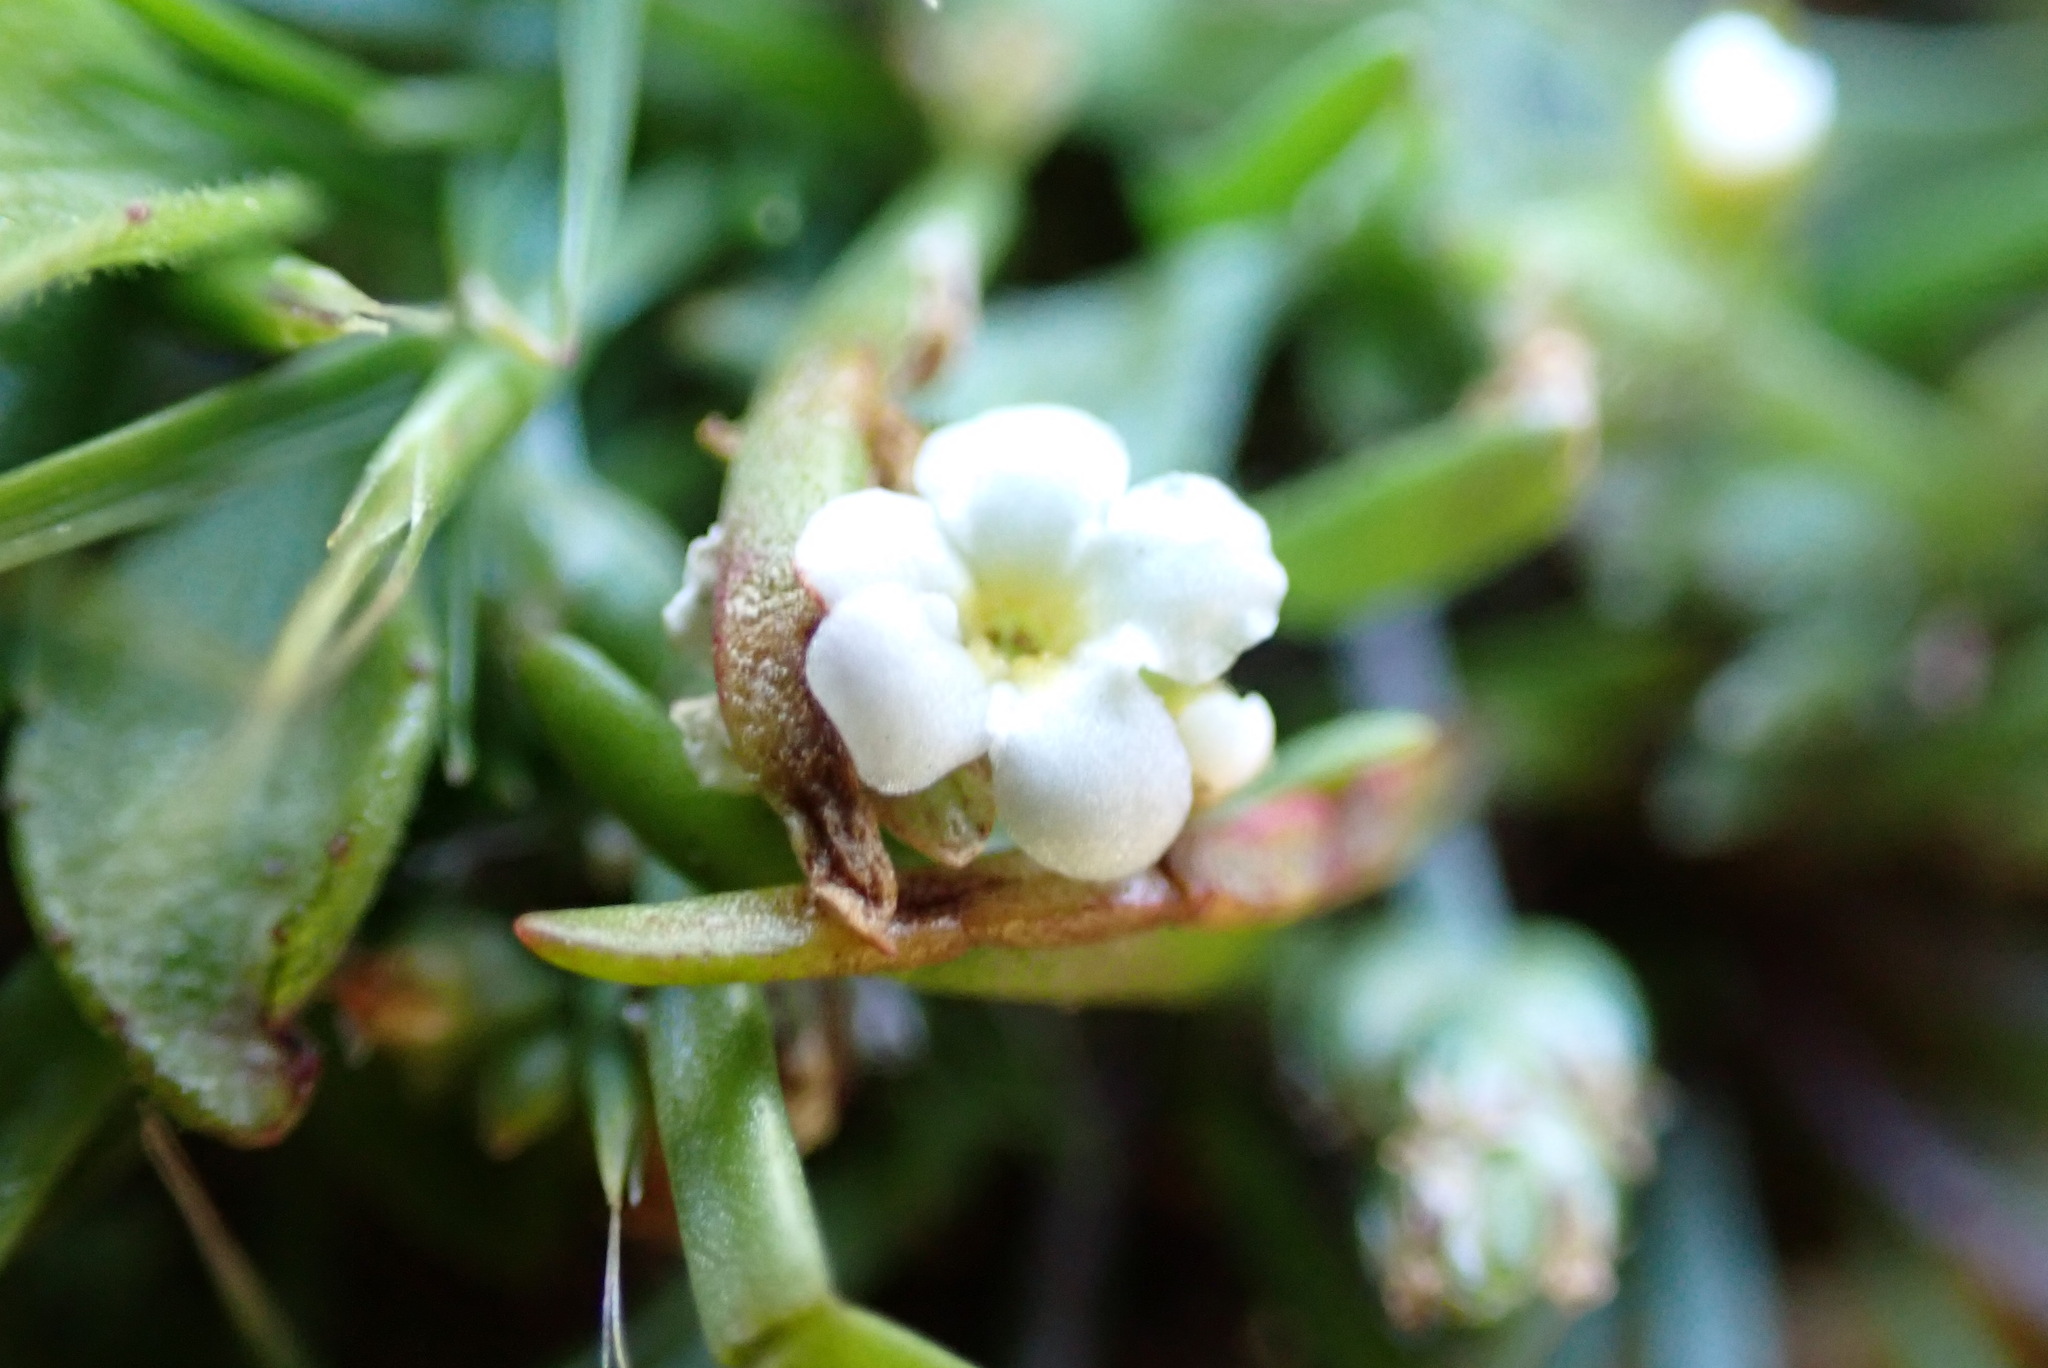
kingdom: Plantae
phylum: Tracheophyta
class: Magnoliopsida
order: Boraginales
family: Boraginaceae
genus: Plagiobothrys
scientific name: Plagiobothrys scouleri
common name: White forget-me-not
